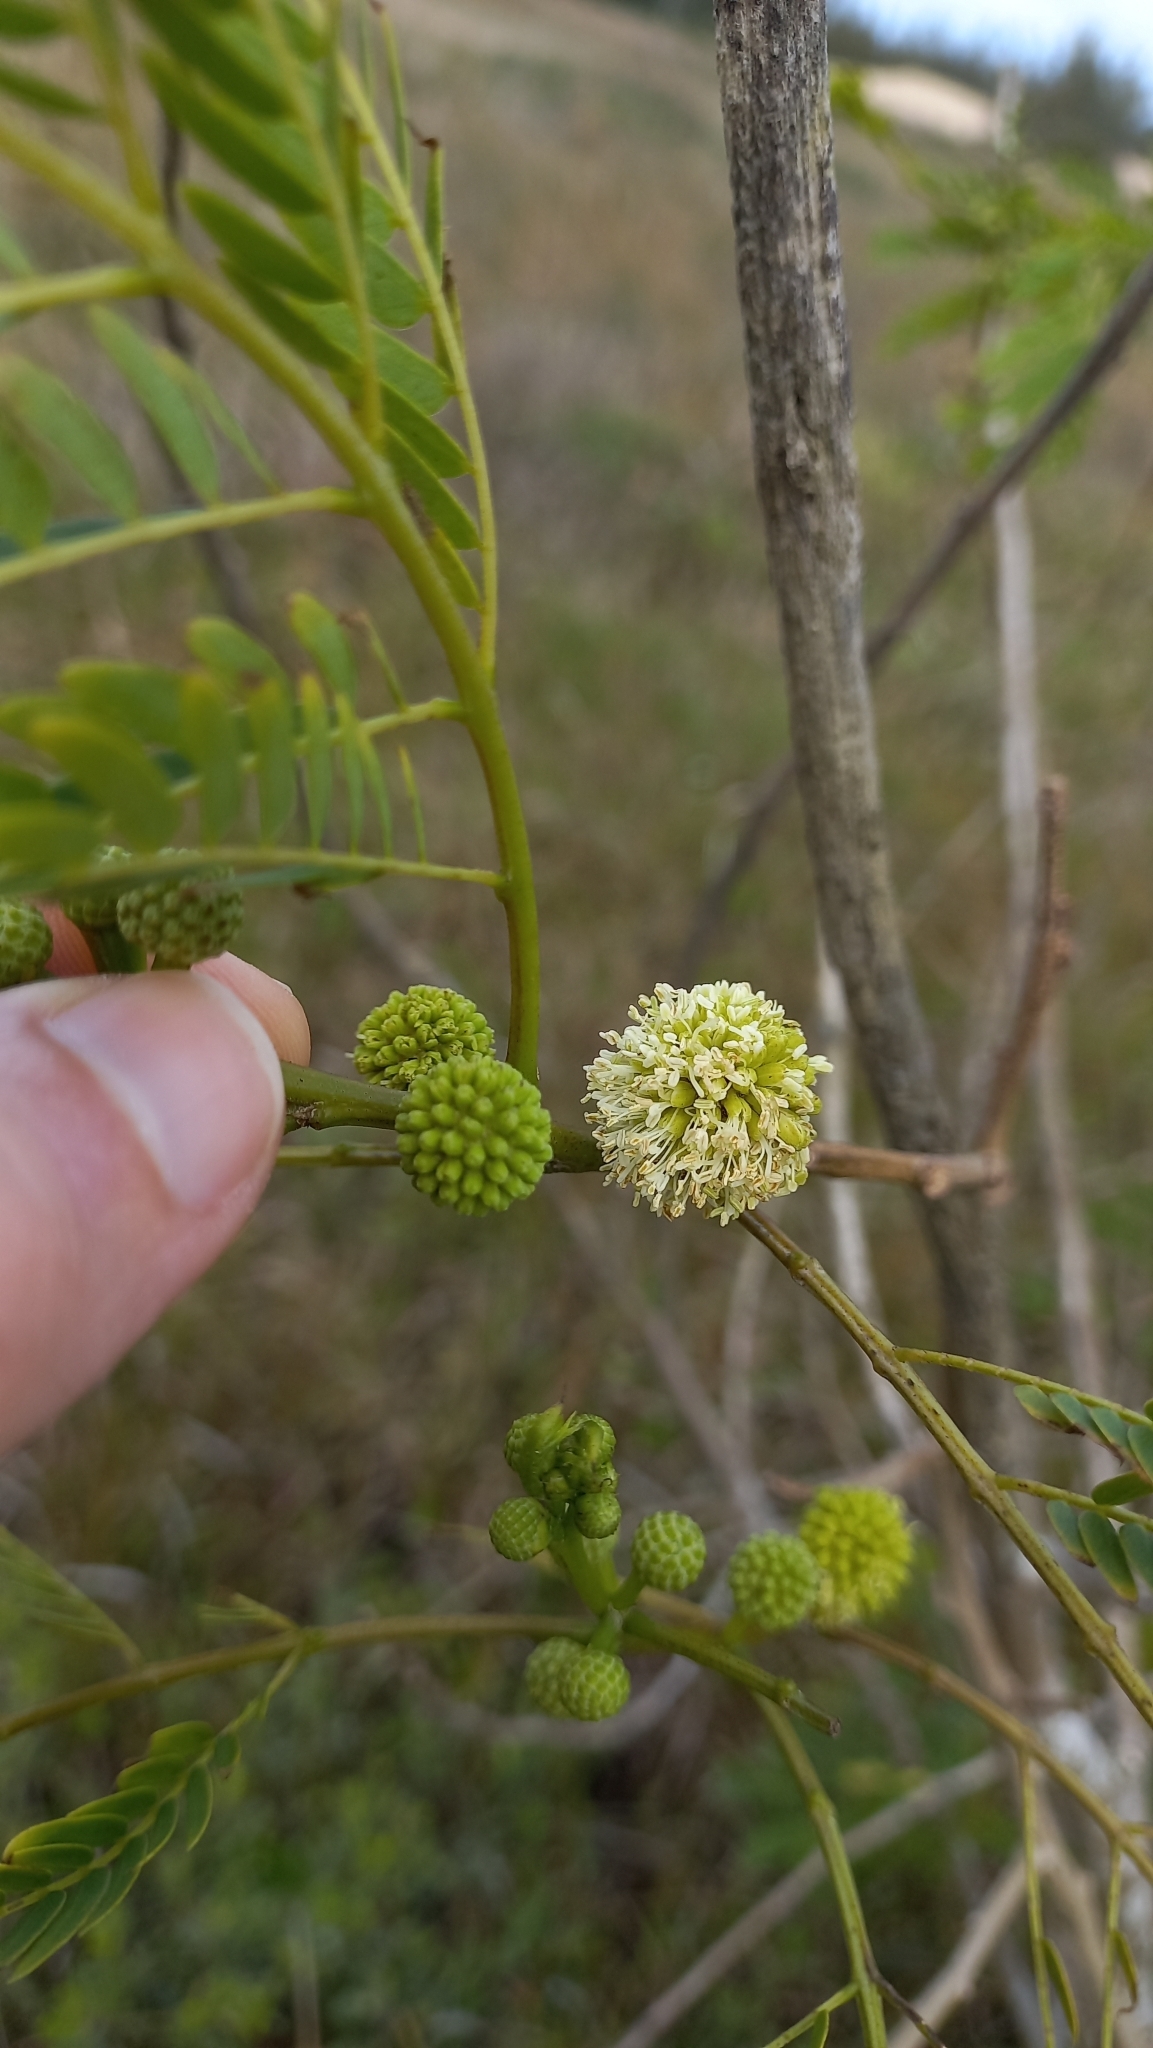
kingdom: Plantae
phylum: Tracheophyta
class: Magnoliopsida
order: Fabales
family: Fabaceae
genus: Leucaena
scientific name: Leucaena leucocephala
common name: White leadtree
